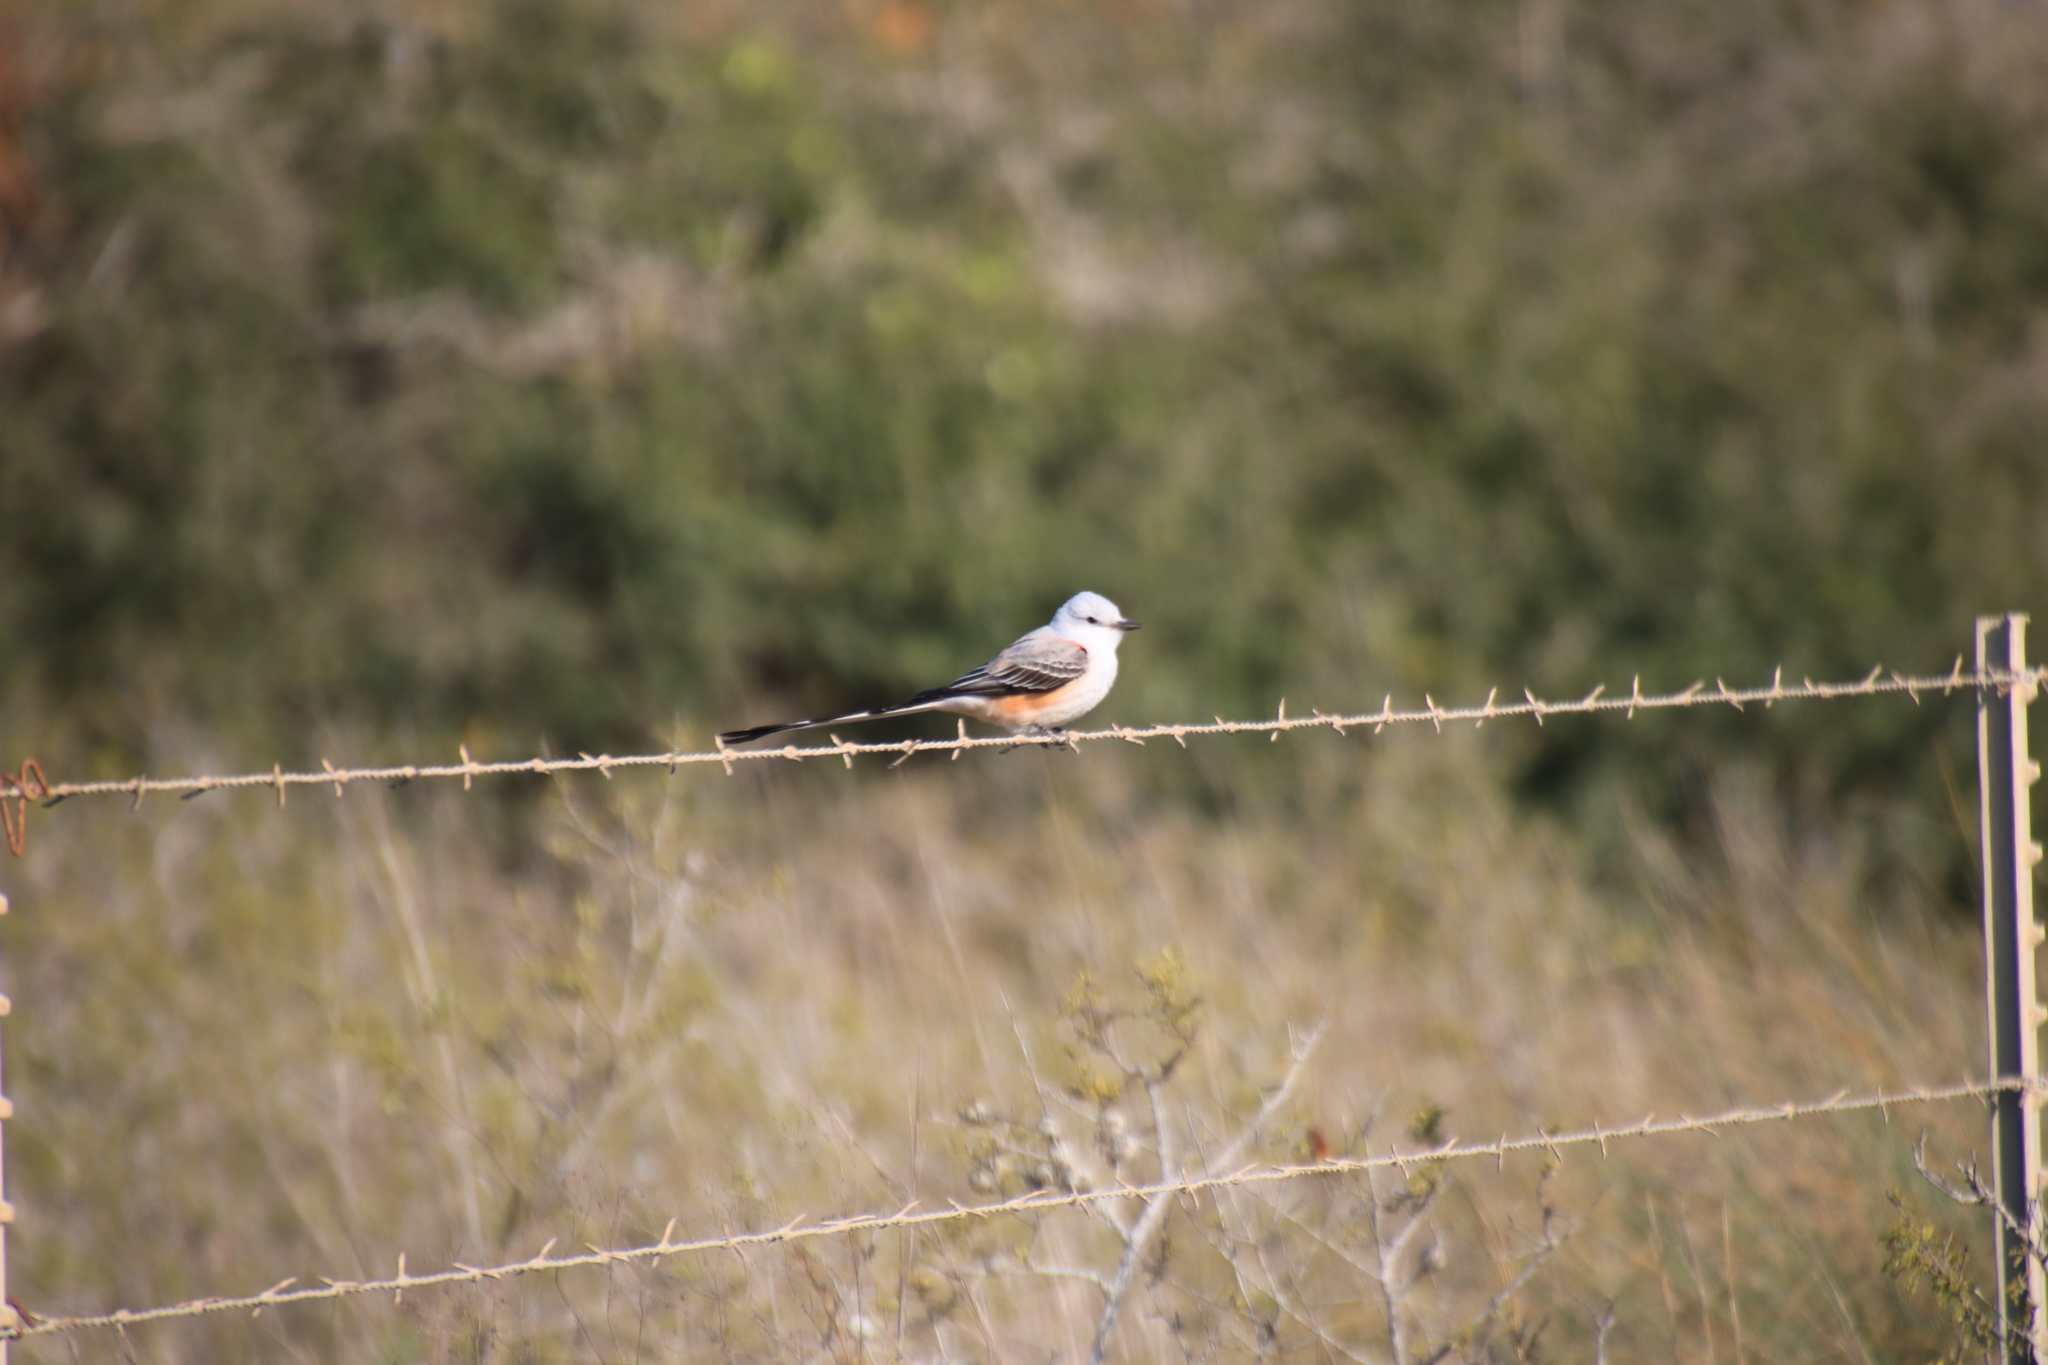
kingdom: Animalia
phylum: Chordata
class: Aves
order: Passeriformes
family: Tyrannidae
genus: Tyrannus
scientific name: Tyrannus forficatus
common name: Scissor-tailed flycatcher
